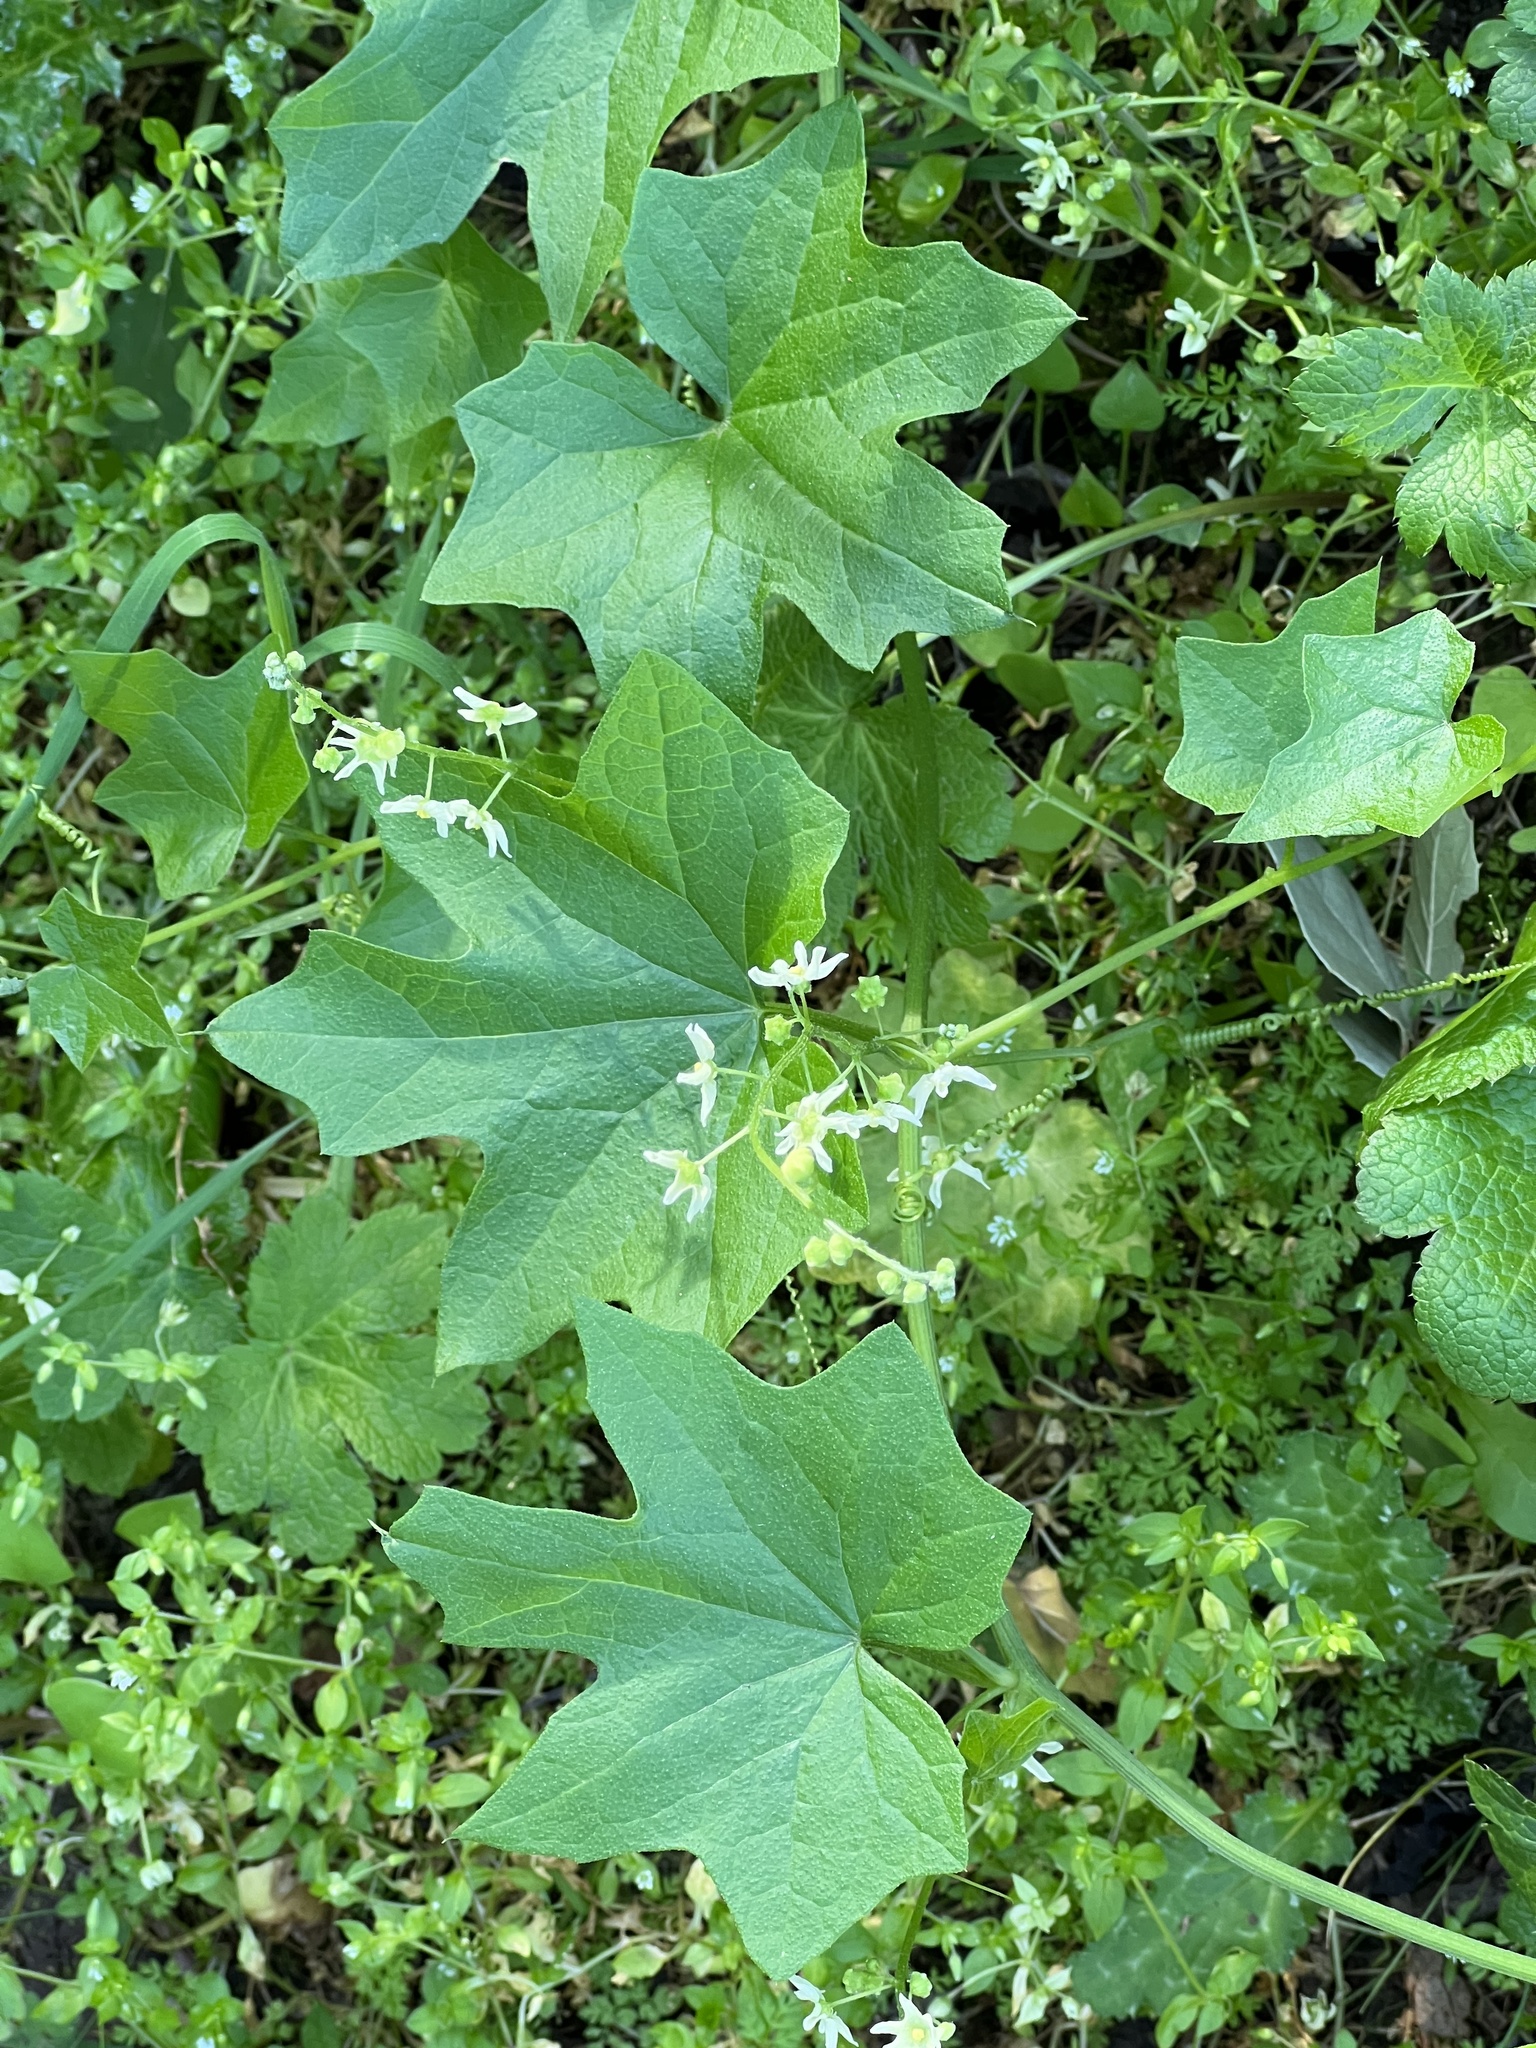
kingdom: Plantae
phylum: Tracheophyta
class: Magnoliopsida
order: Cucurbitales
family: Cucurbitaceae
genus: Marah
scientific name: Marah fabacea
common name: California manroot
